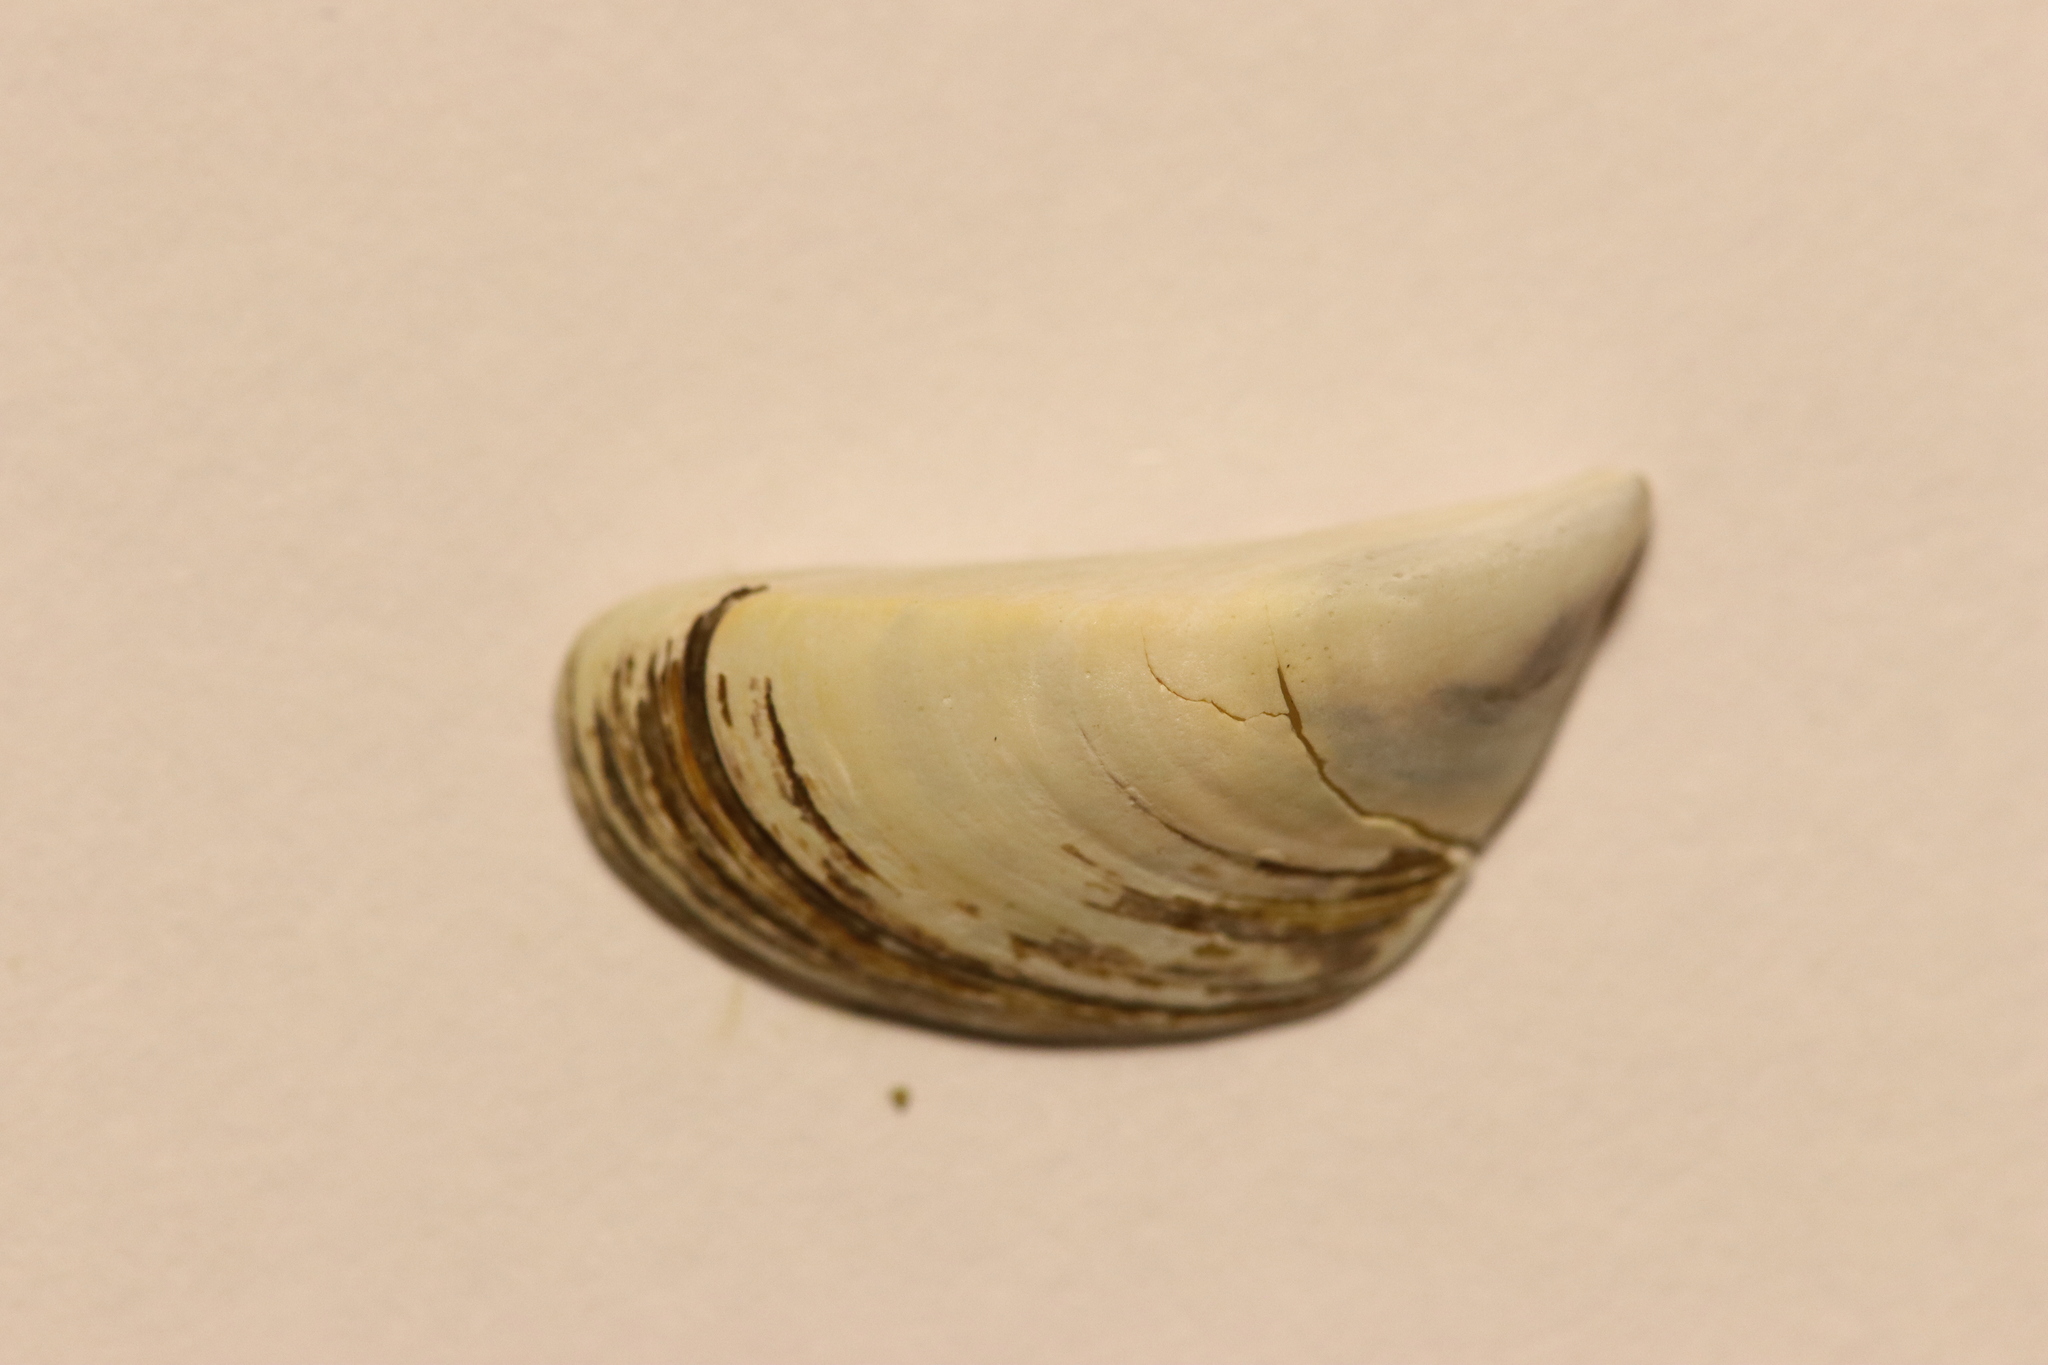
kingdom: Animalia
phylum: Mollusca
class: Bivalvia
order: Myida
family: Dreissenidae
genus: Dreissena
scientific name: Dreissena polymorpha
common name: Zebra mussel
